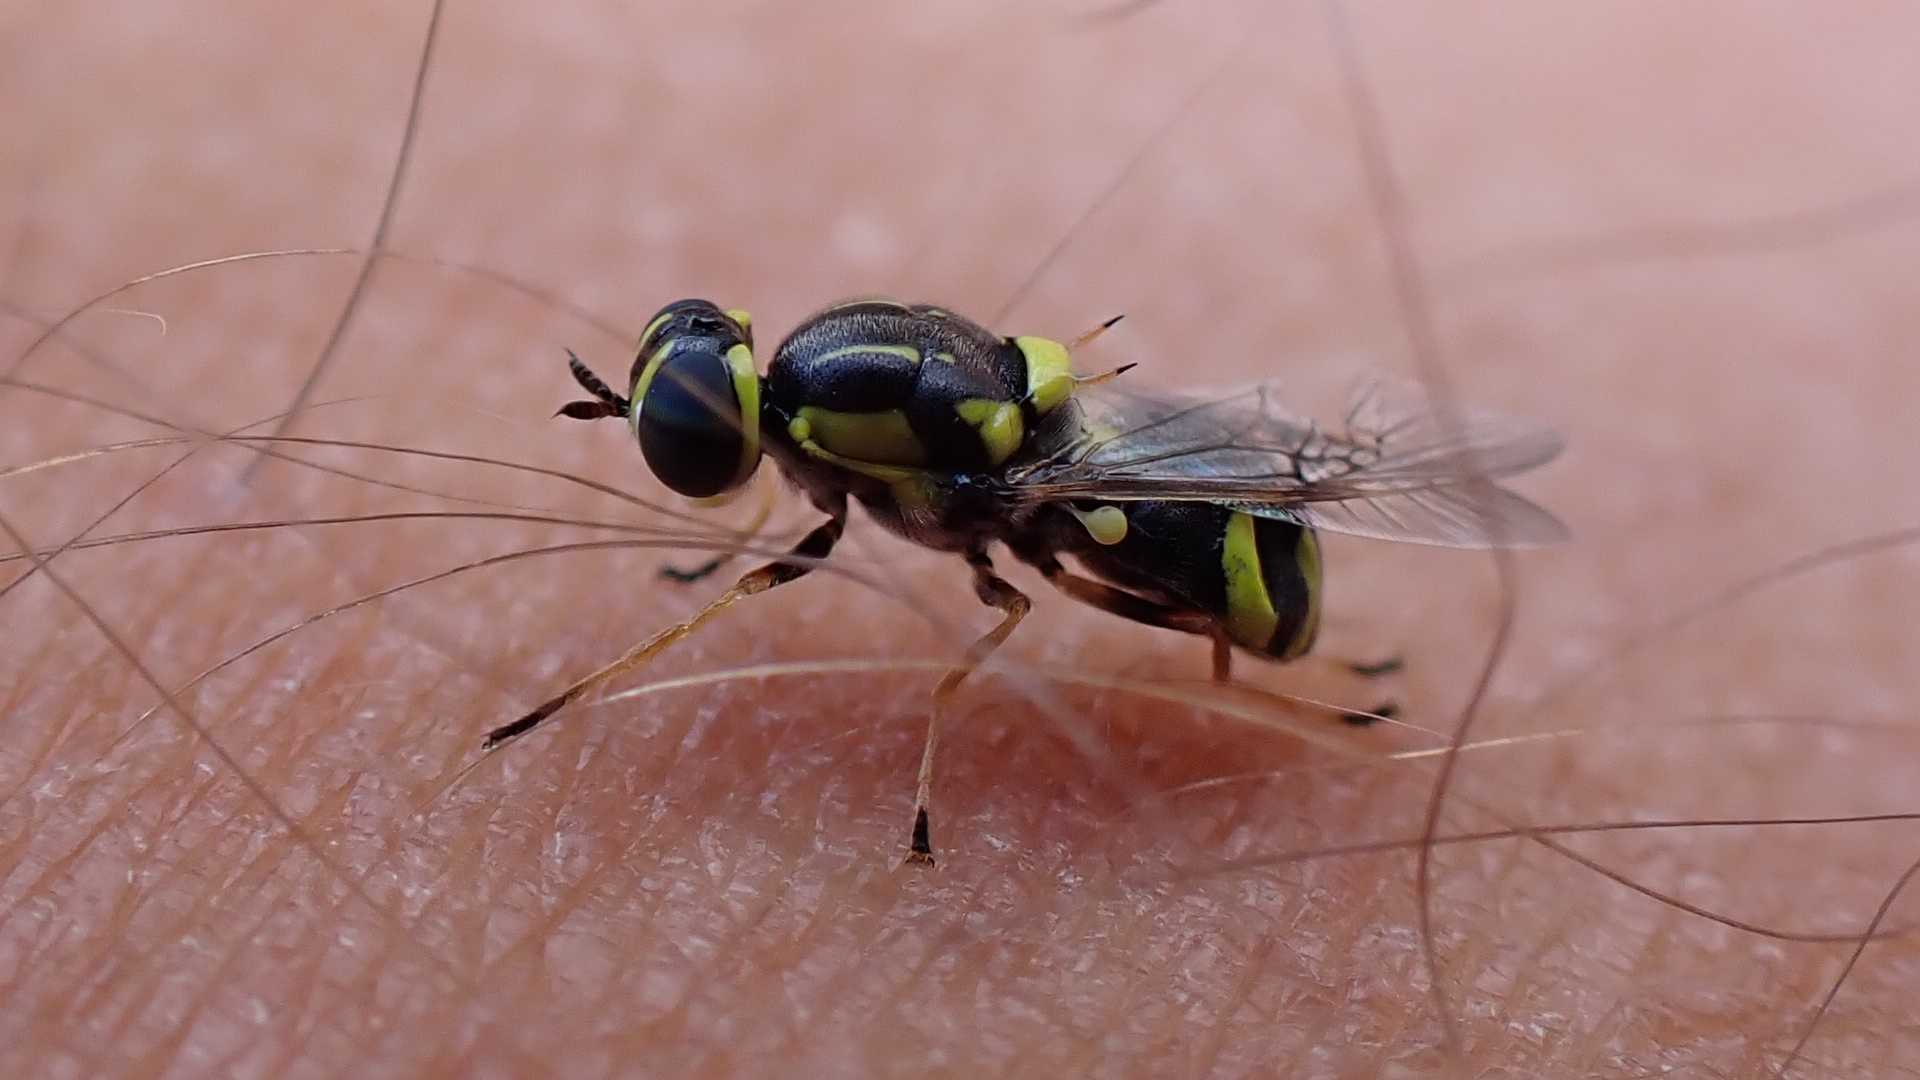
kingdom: Animalia
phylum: Arthropoda
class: Insecta
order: Diptera
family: Stratiomyidae
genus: Oxycera
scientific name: Oxycera rara
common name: Four-barred major
